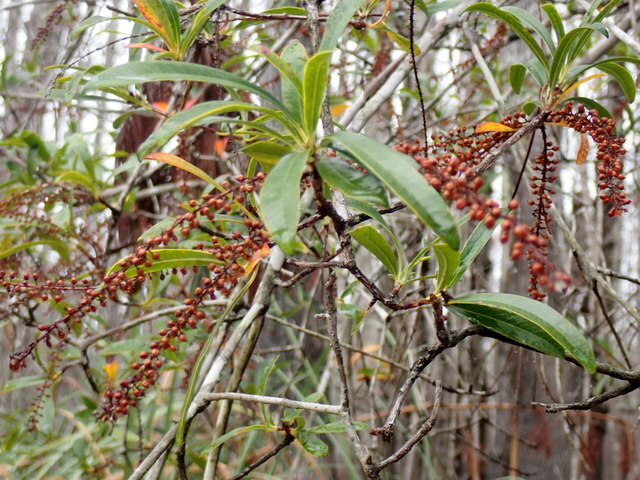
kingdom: Plantae
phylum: Tracheophyta
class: Magnoliopsida
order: Ericales
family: Cyrillaceae
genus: Cyrilla
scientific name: Cyrilla racemiflora
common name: Black titi
